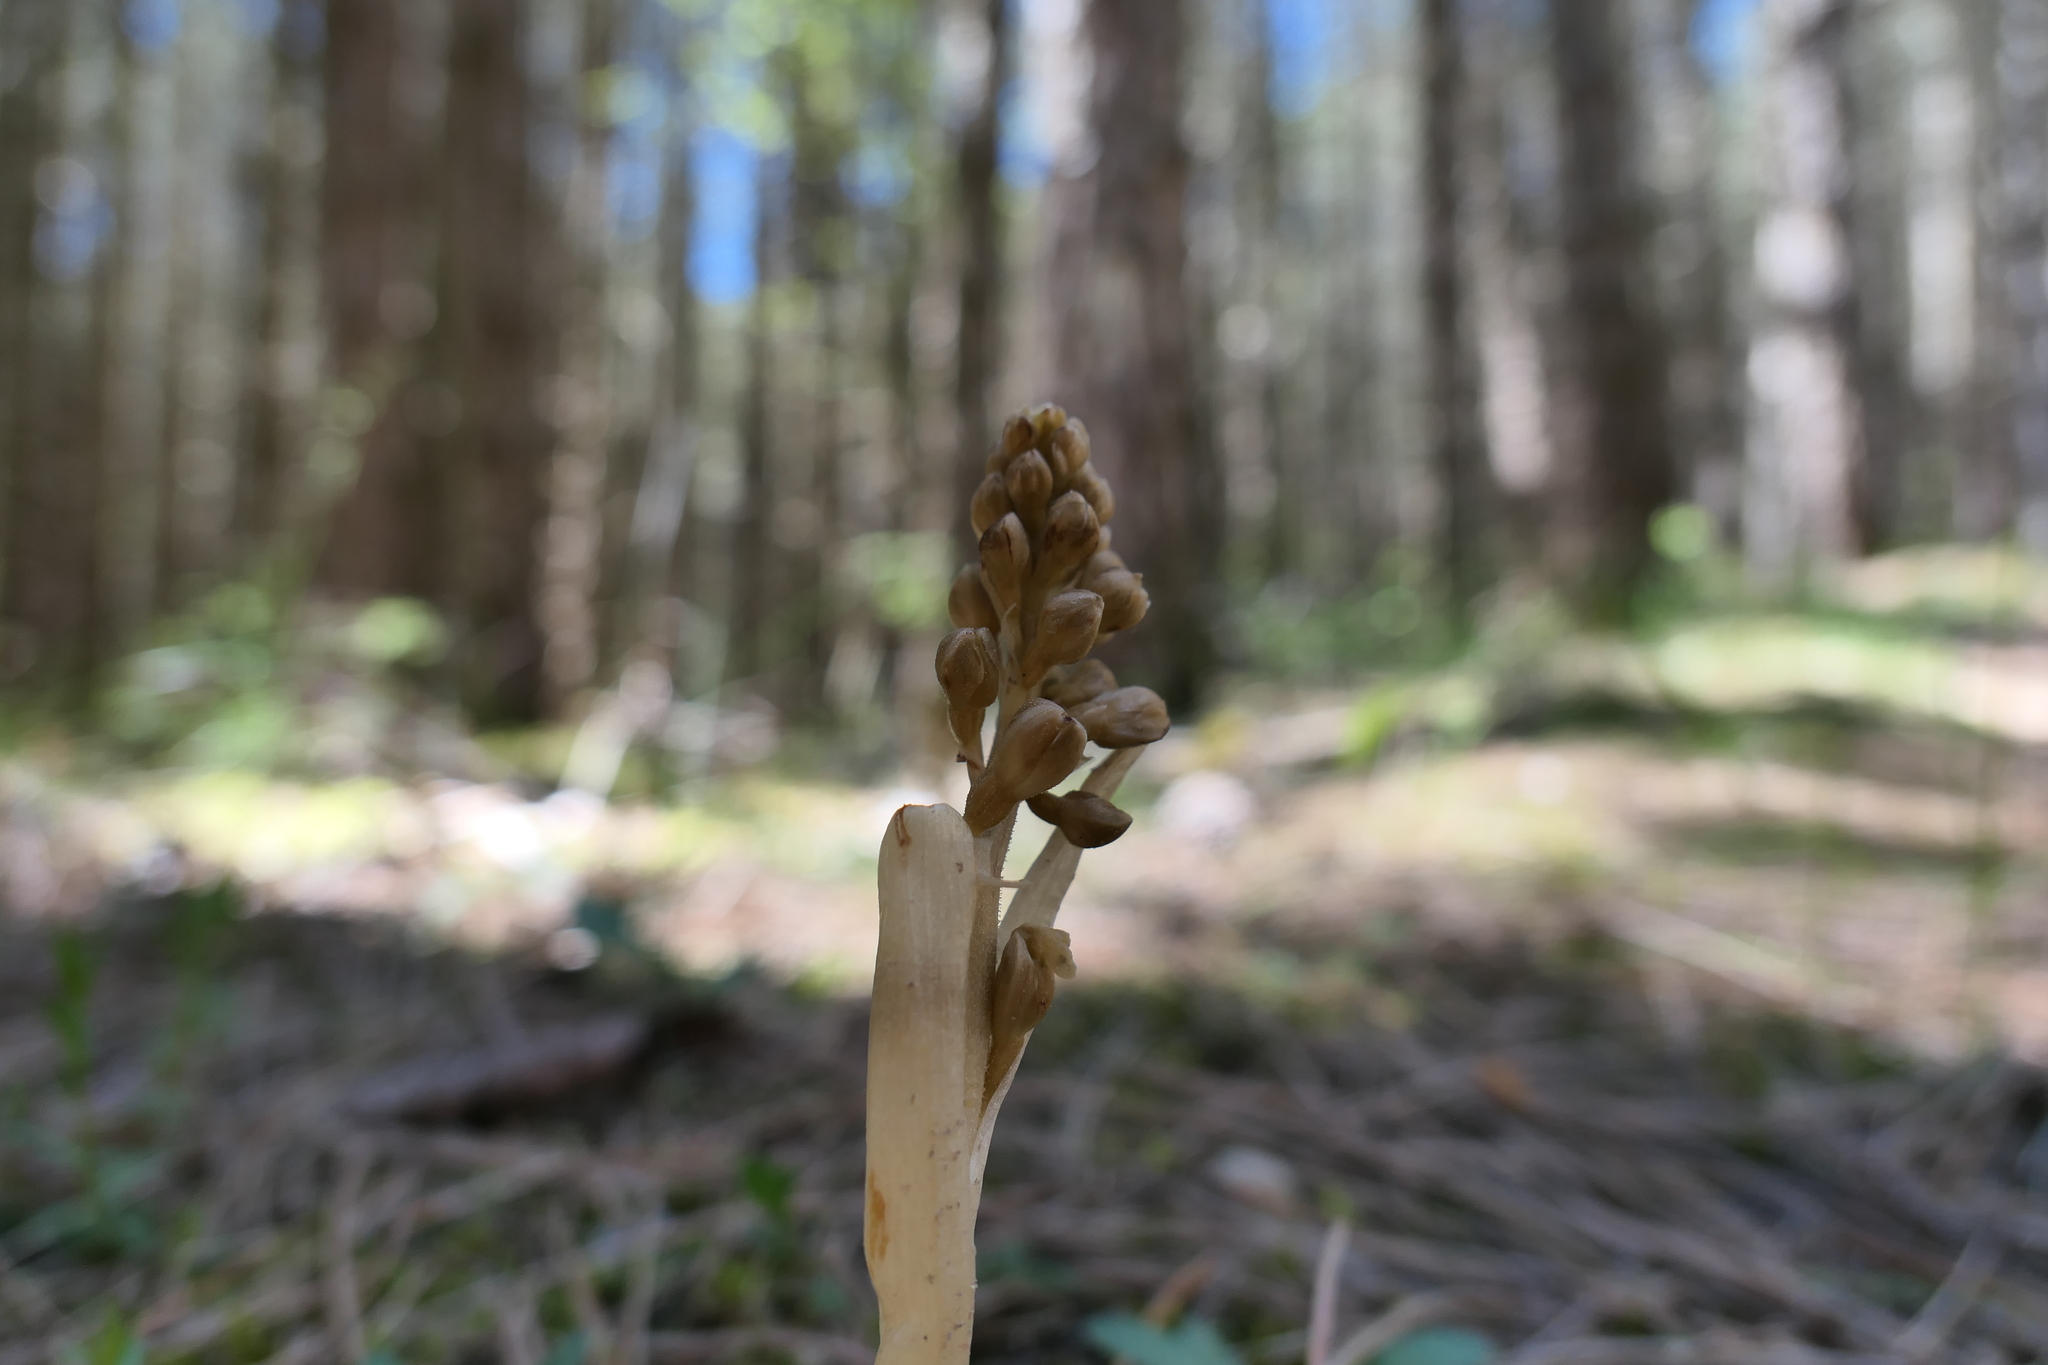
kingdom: Plantae
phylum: Tracheophyta
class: Liliopsida
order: Asparagales
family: Orchidaceae
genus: Neottia
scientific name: Neottia nidus-avis
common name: Bird's-nest orchid
